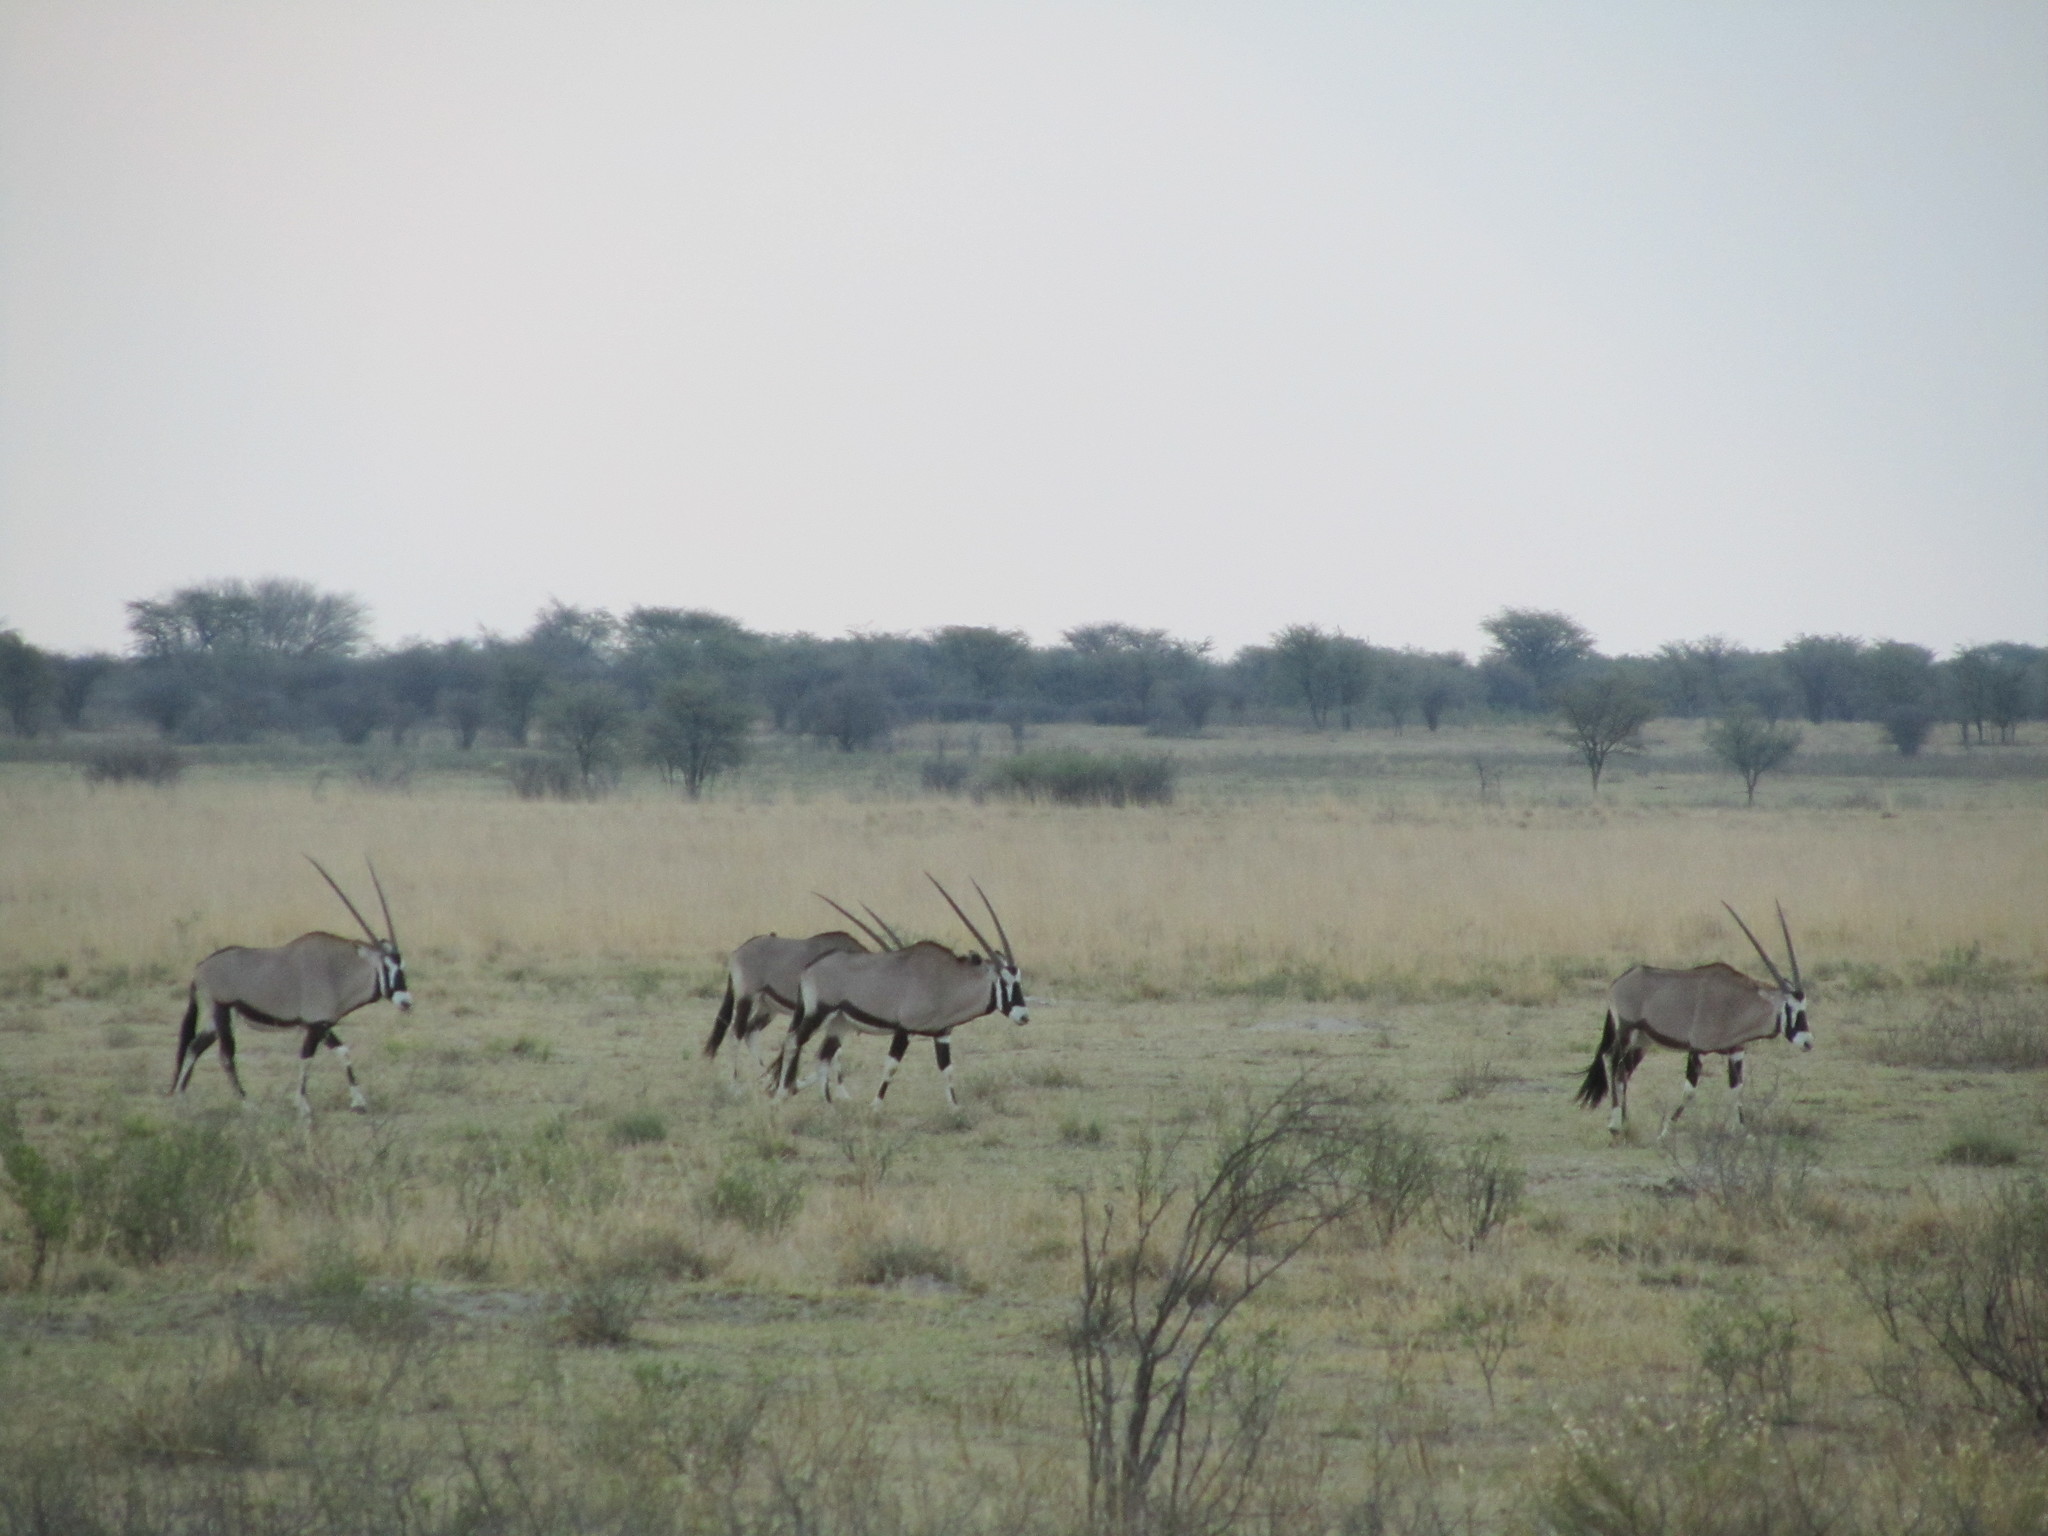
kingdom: Animalia
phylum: Chordata
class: Mammalia
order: Artiodactyla
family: Bovidae
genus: Oryx
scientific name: Oryx gazella
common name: Gemsbok
